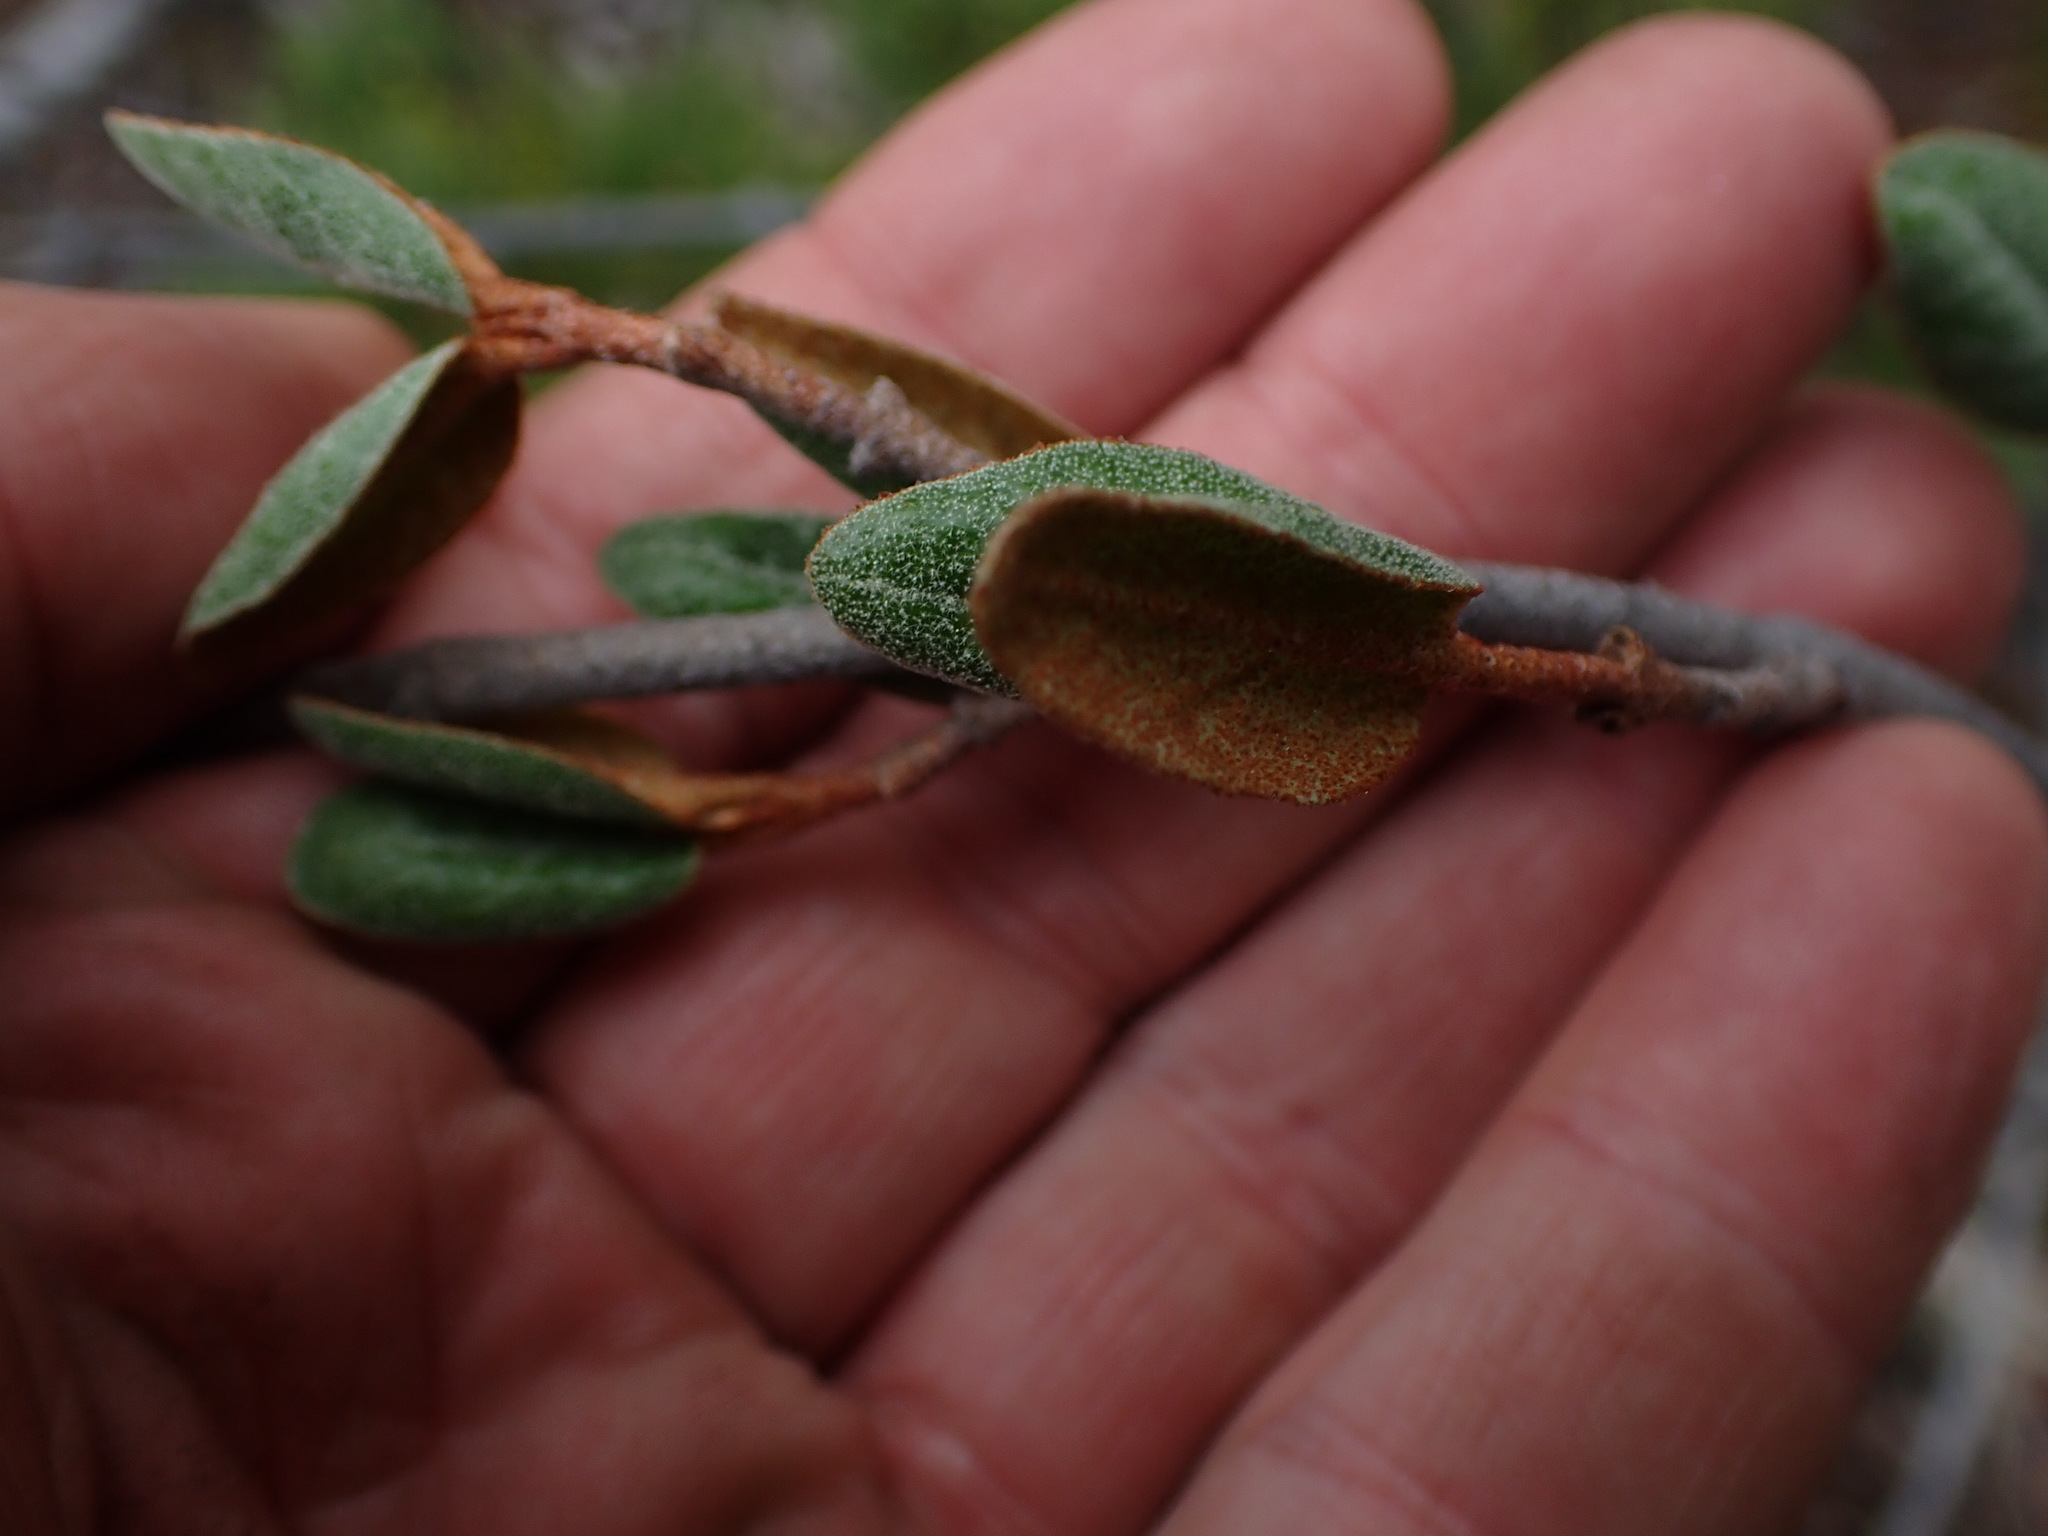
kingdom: Plantae
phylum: Tracheophyta
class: Magnoliopsida
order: Rosales
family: Elaeagnaceae
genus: Shepherdia
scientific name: Shepherdia canadensis
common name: Soapberry
